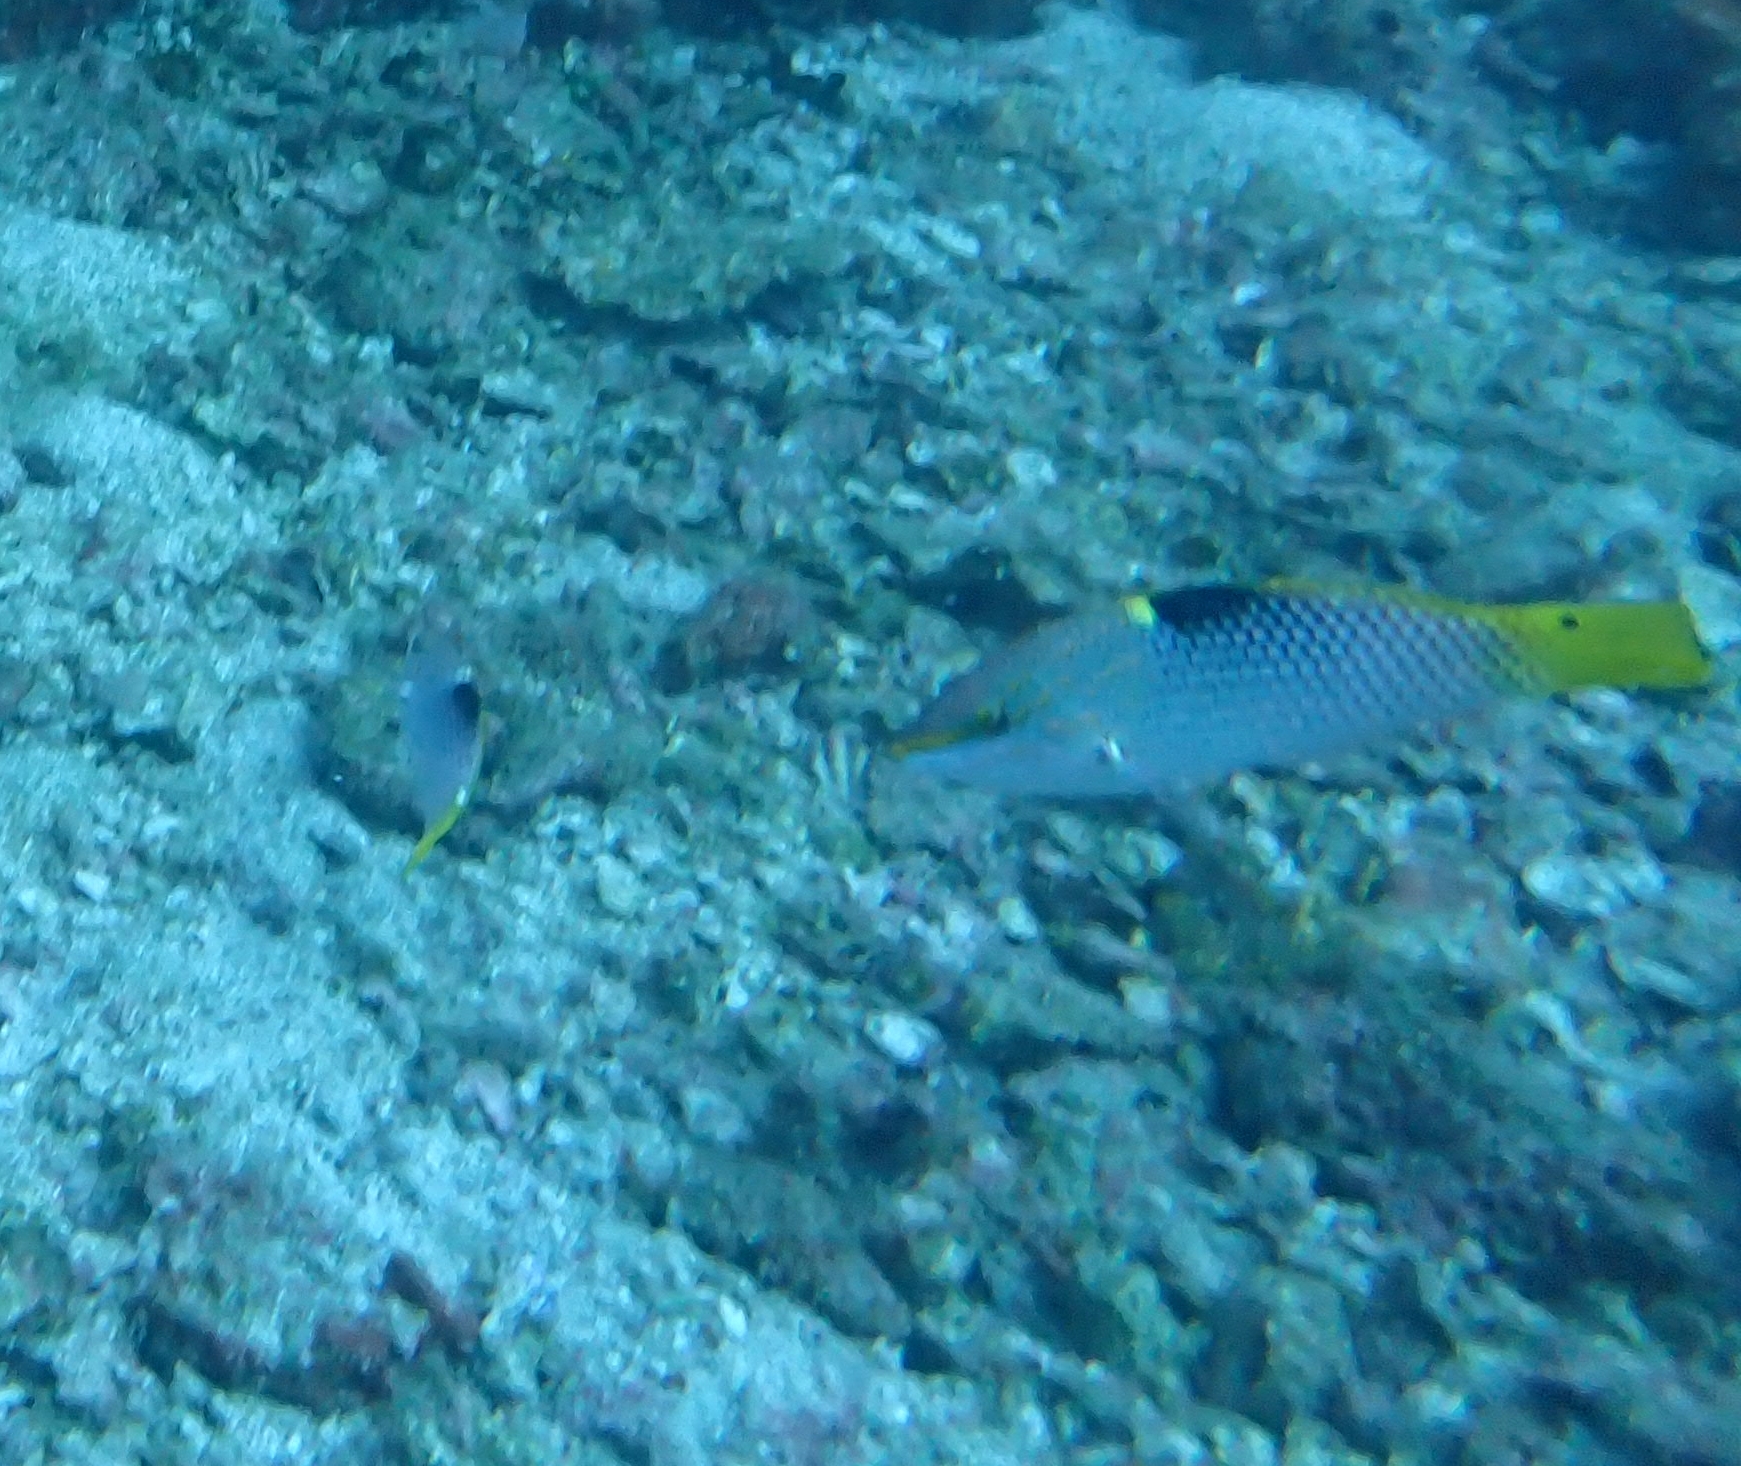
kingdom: Animalia
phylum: Chordata
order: Perciformes
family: Labridae
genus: Halichoeres
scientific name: Halichoeres hortulanus
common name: Checkerboard wrasse
